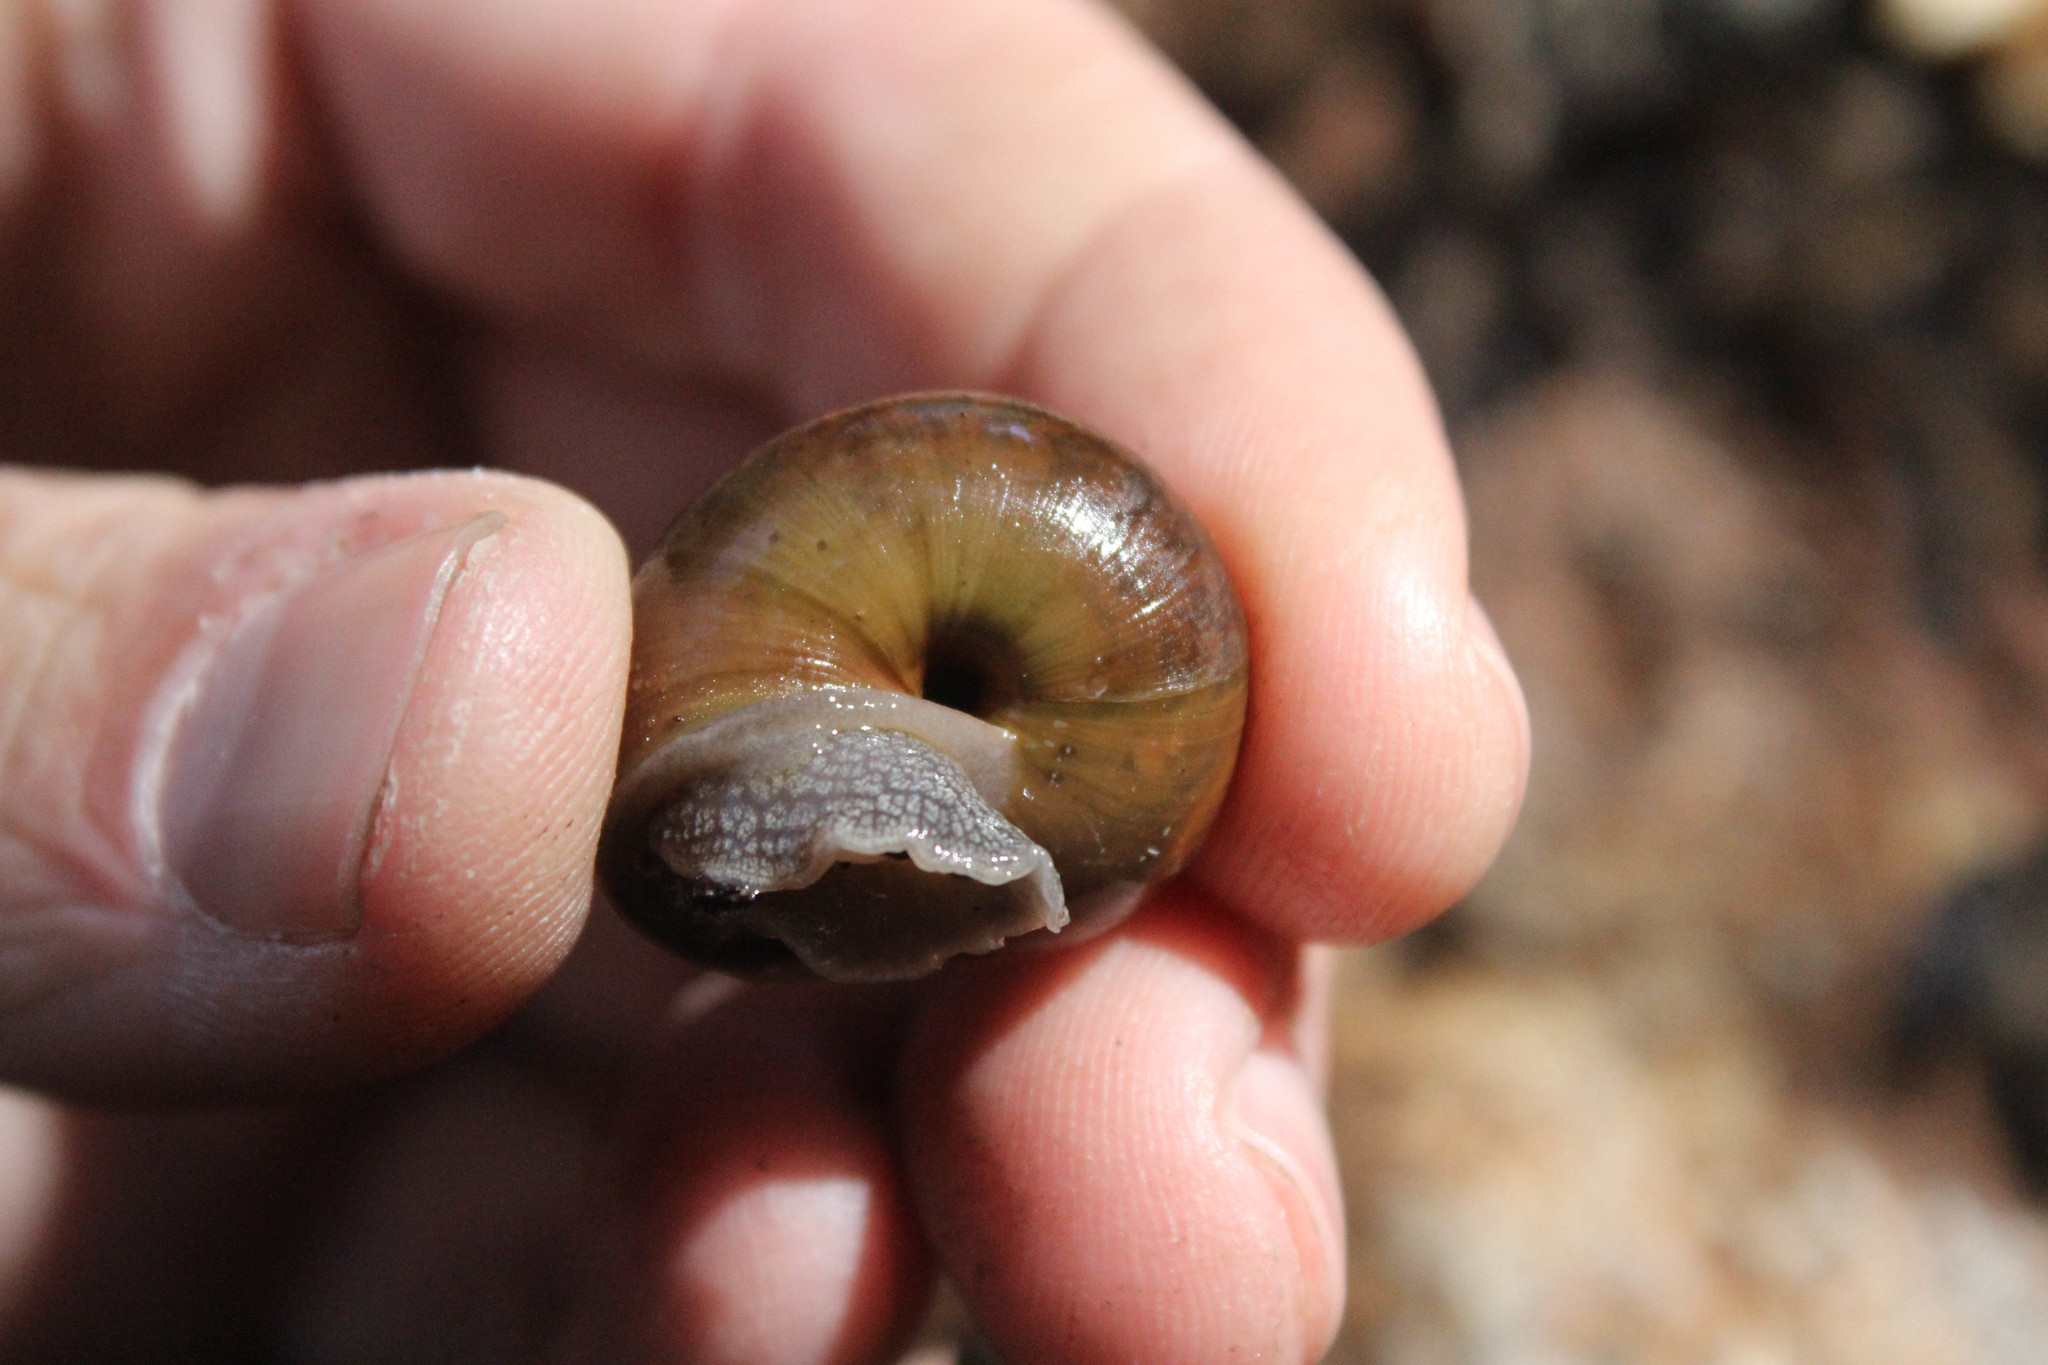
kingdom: Animalia
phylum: Mollusca
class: Gastropoda
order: Stylommatophora
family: Xanthonychidae
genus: Helminthoglypta
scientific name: Helminthoglypta traskii
